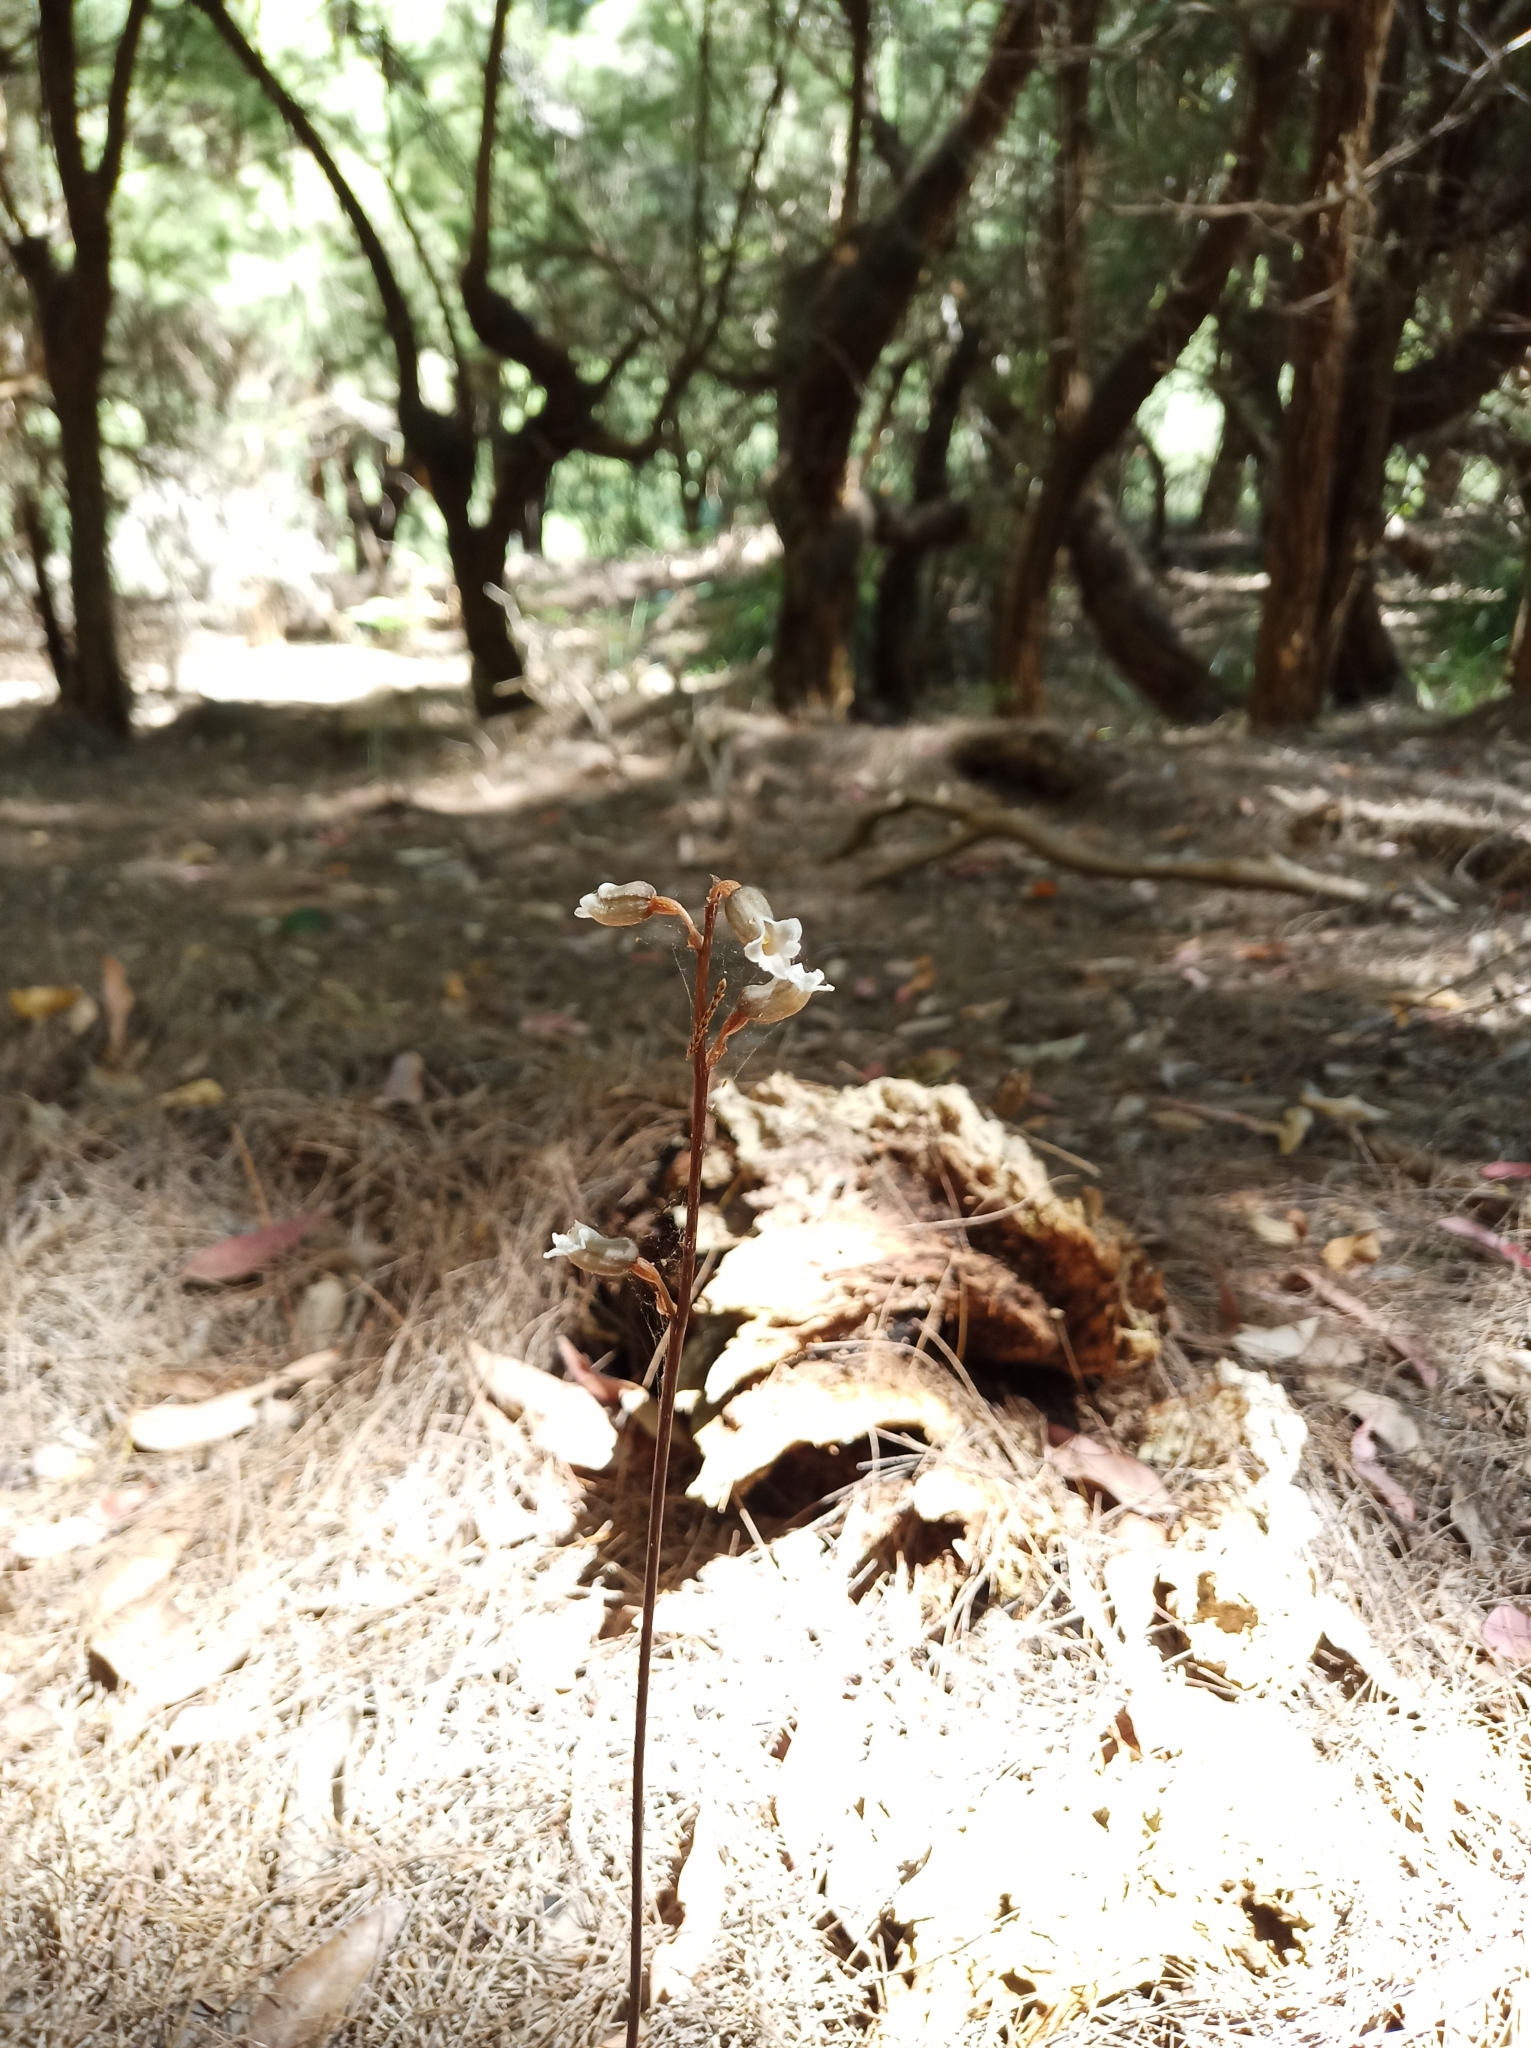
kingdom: Plantae
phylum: Tracheophyta
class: Liliopsida
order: Asparagales
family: Orchidaceae
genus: Gastrodia
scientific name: Gastrodia lacista
